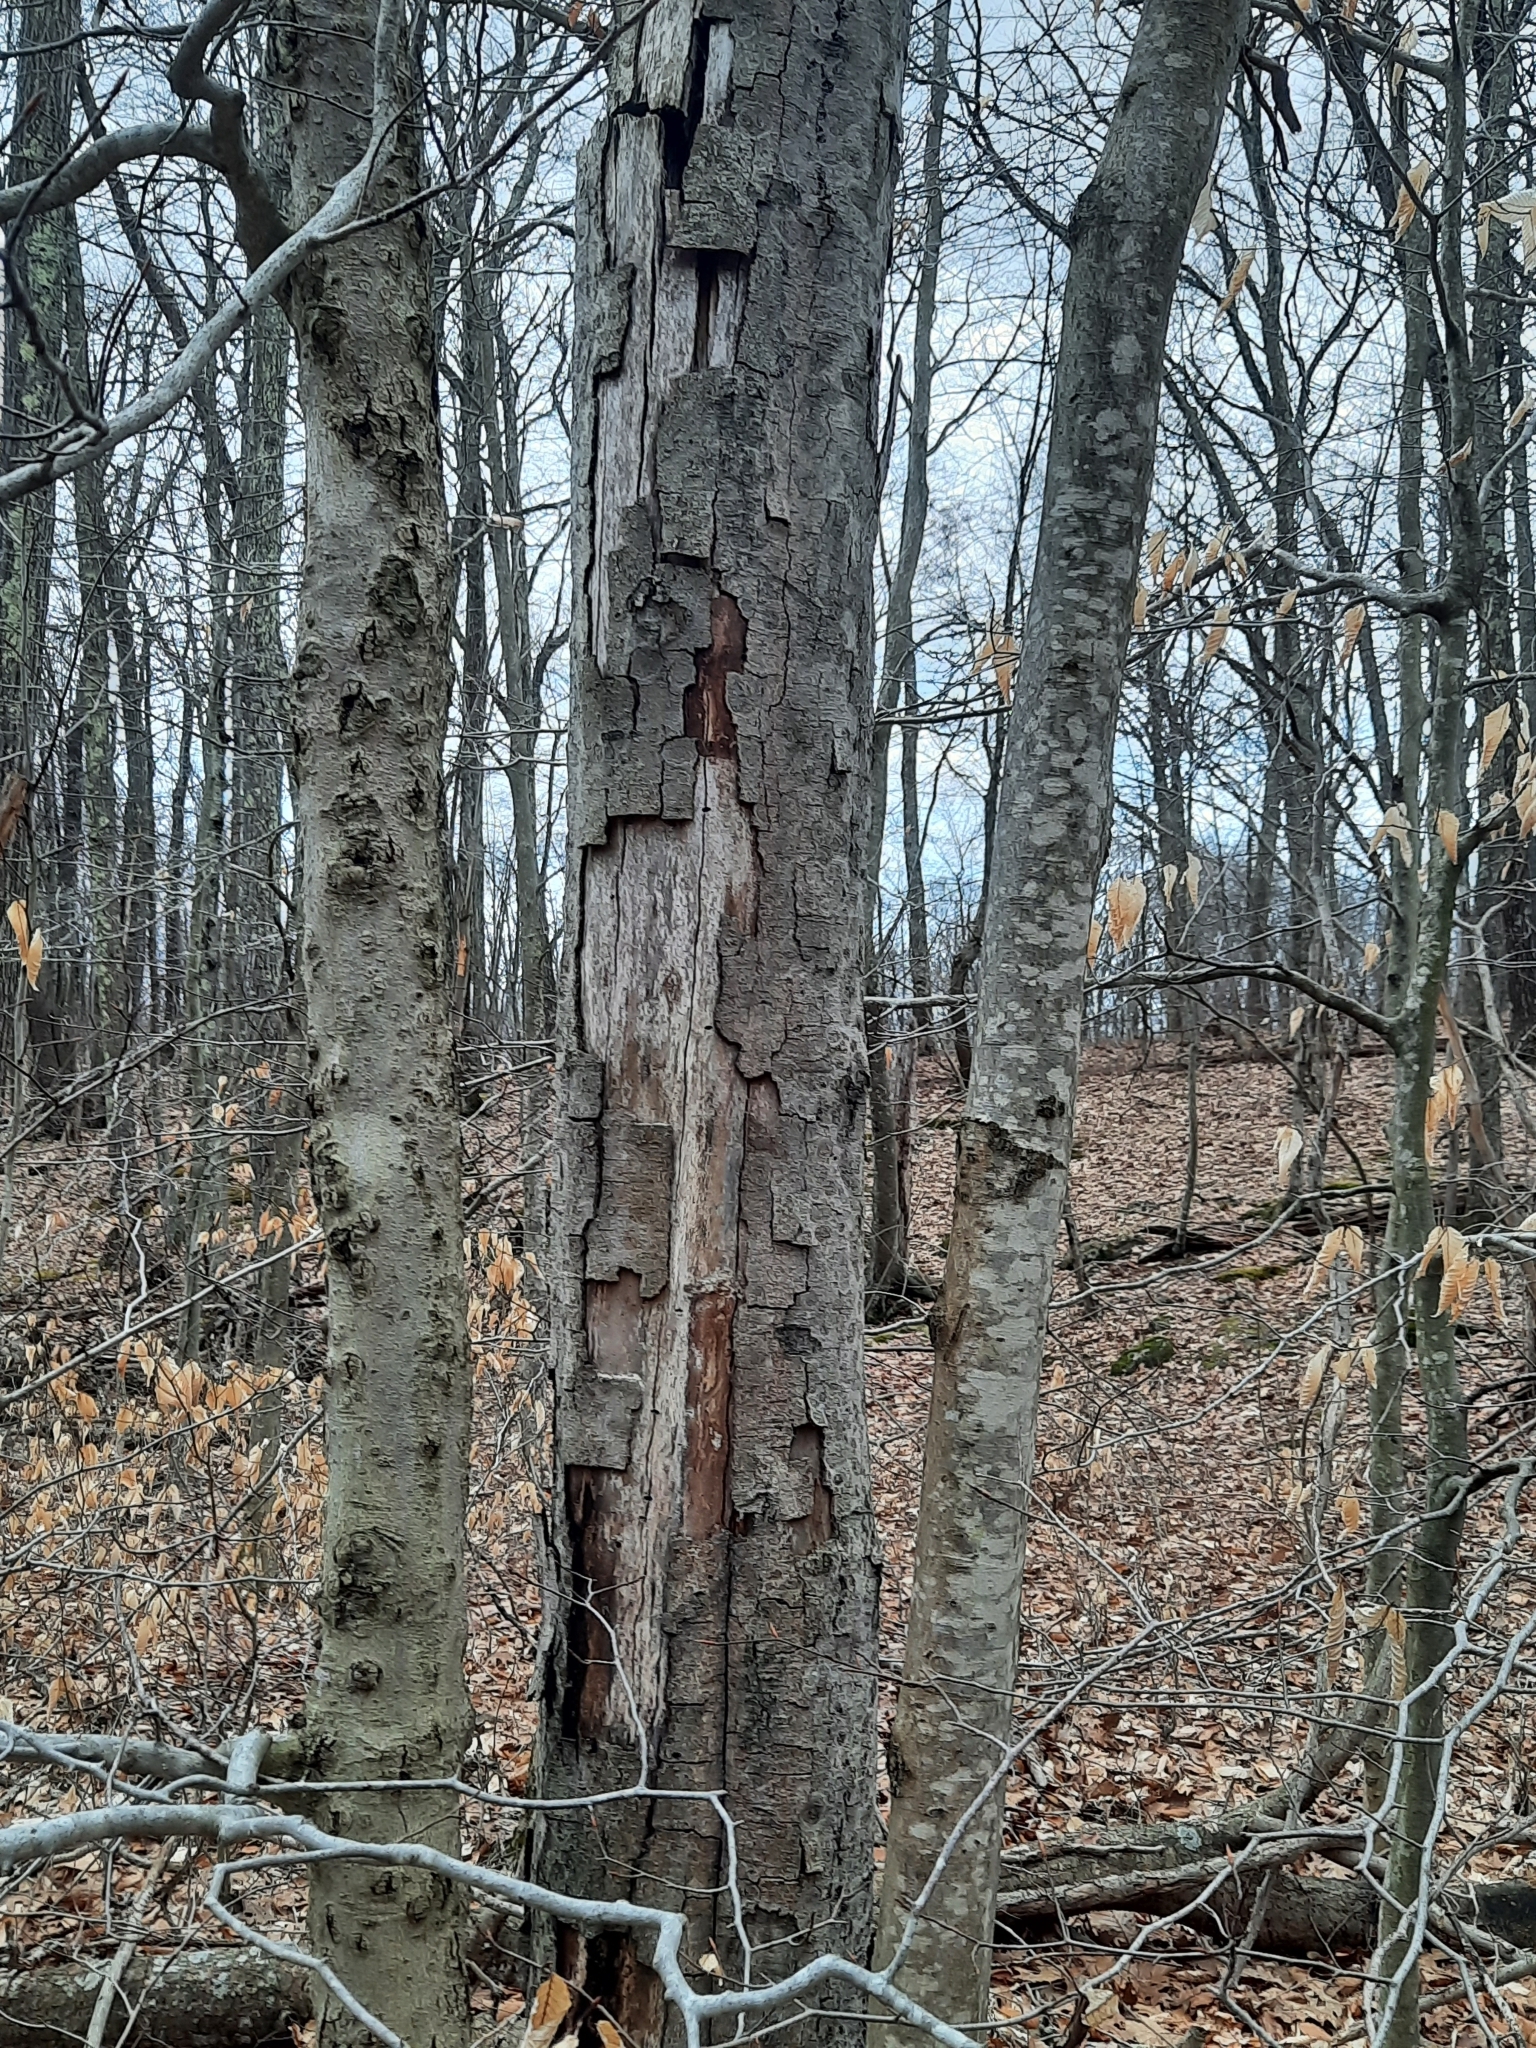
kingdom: Plantae
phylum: Tracheophyta
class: Magnoliopsida
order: Fagales
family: Fagaceae
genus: Fagus
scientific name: Fagus grandifolia
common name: American beech
